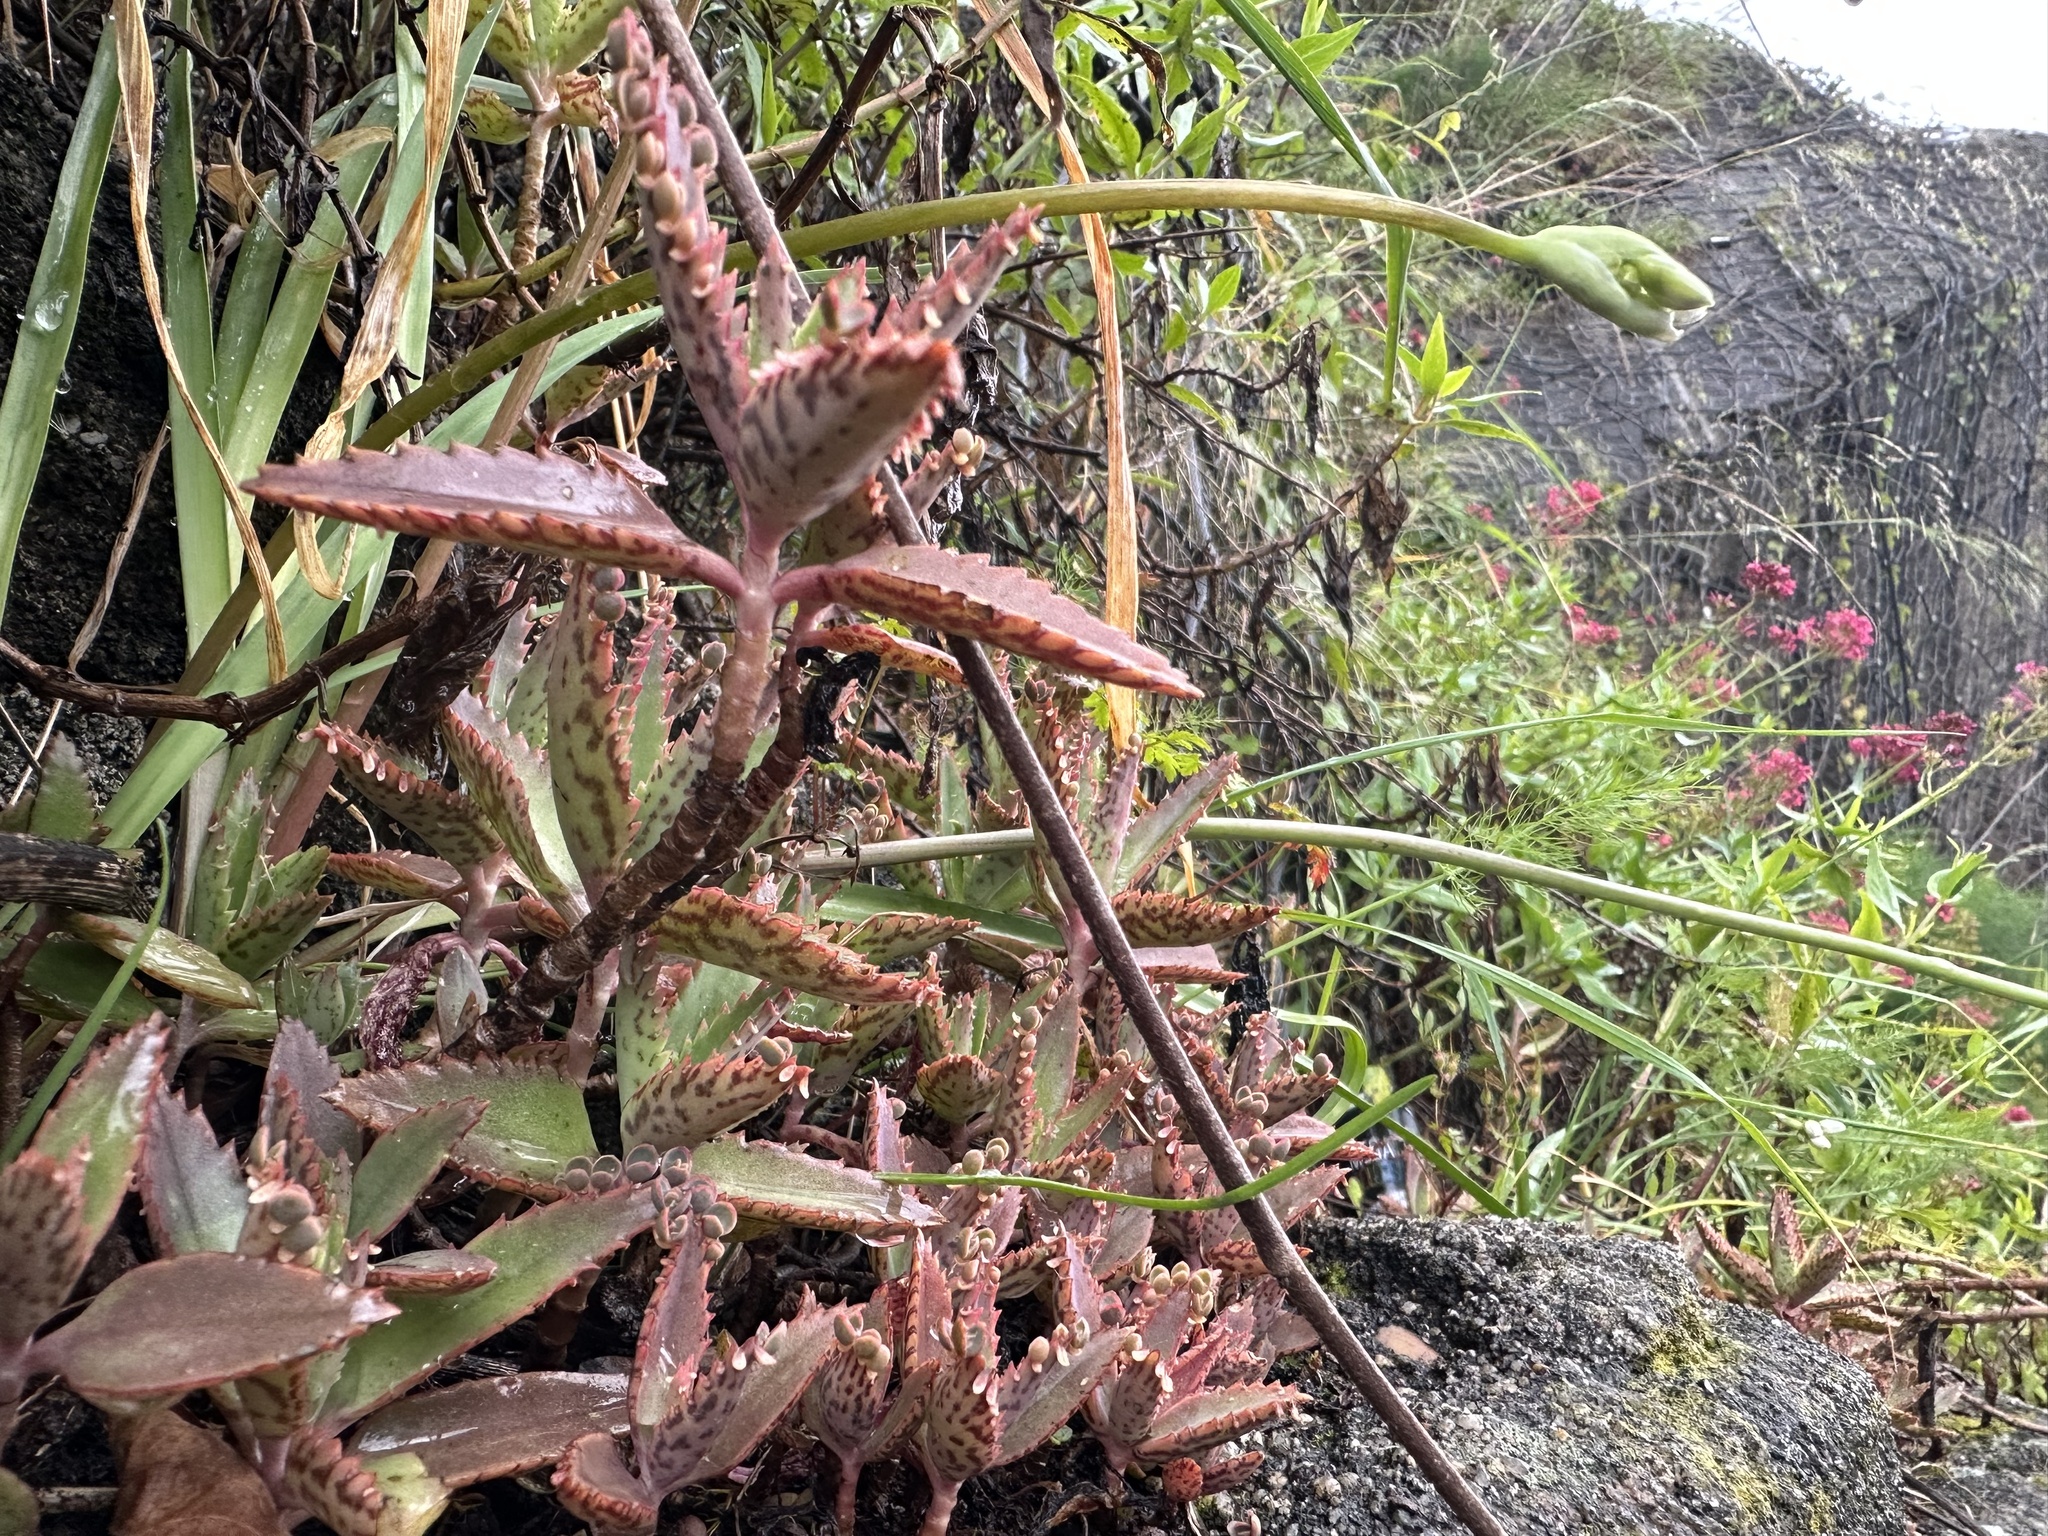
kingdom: Plantae
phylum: Tracheophyta
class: Magnoliopsida
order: Saxifragales
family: Crassulaceae
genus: Kalanchoe
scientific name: Kalanchoe houghtonii
